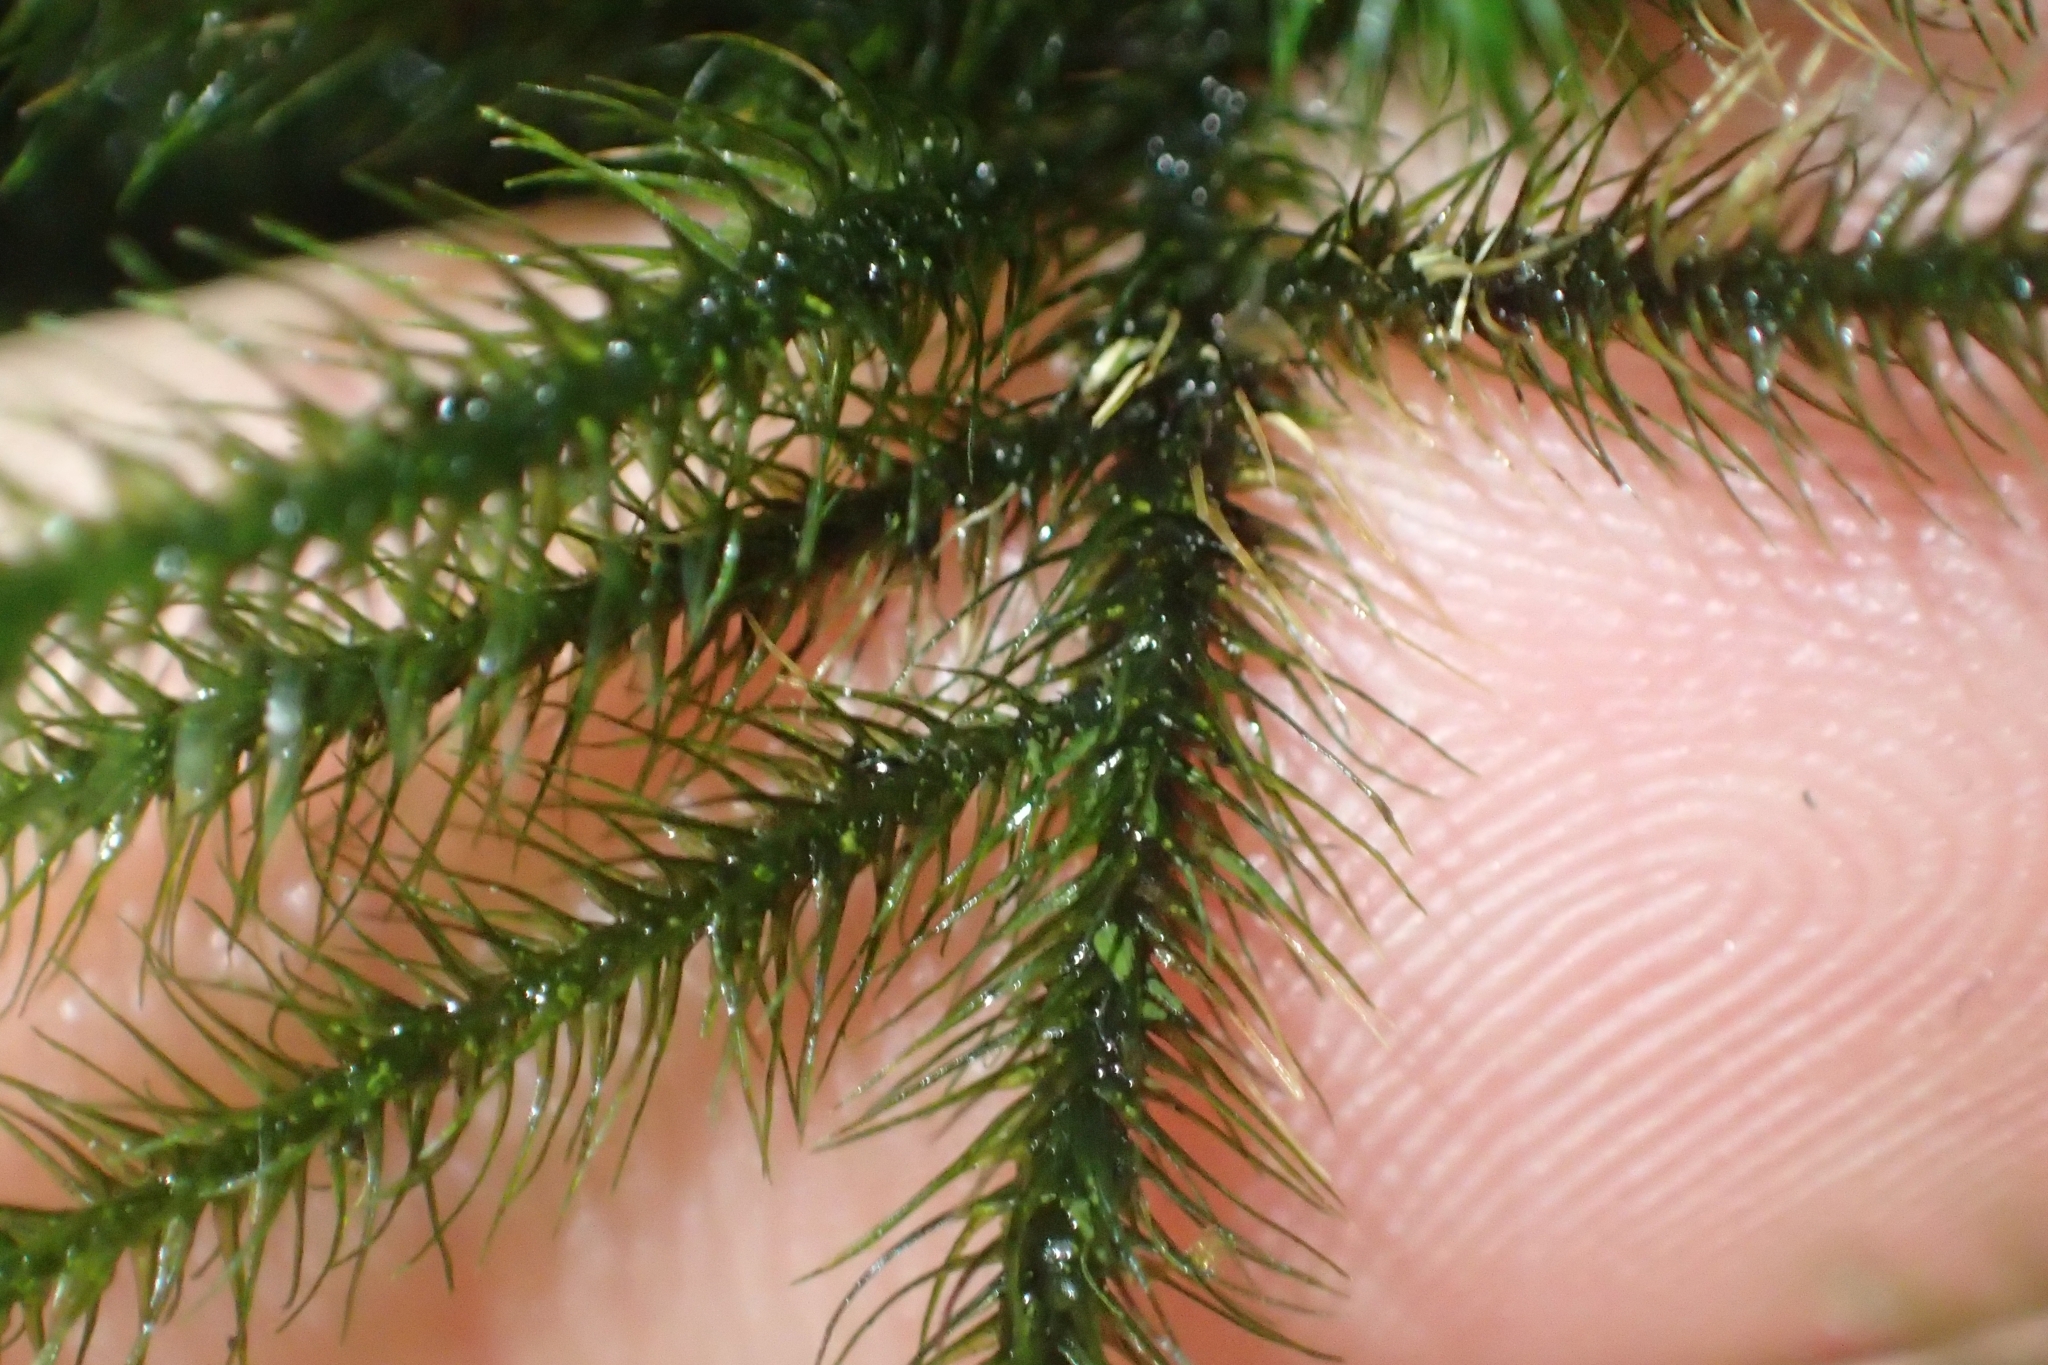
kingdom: Plantae
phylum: Bryophyta
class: Bryopsida
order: Hypnales
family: Neckeraceae
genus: Echinodiopsis
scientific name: Echinodiopsis hispida
